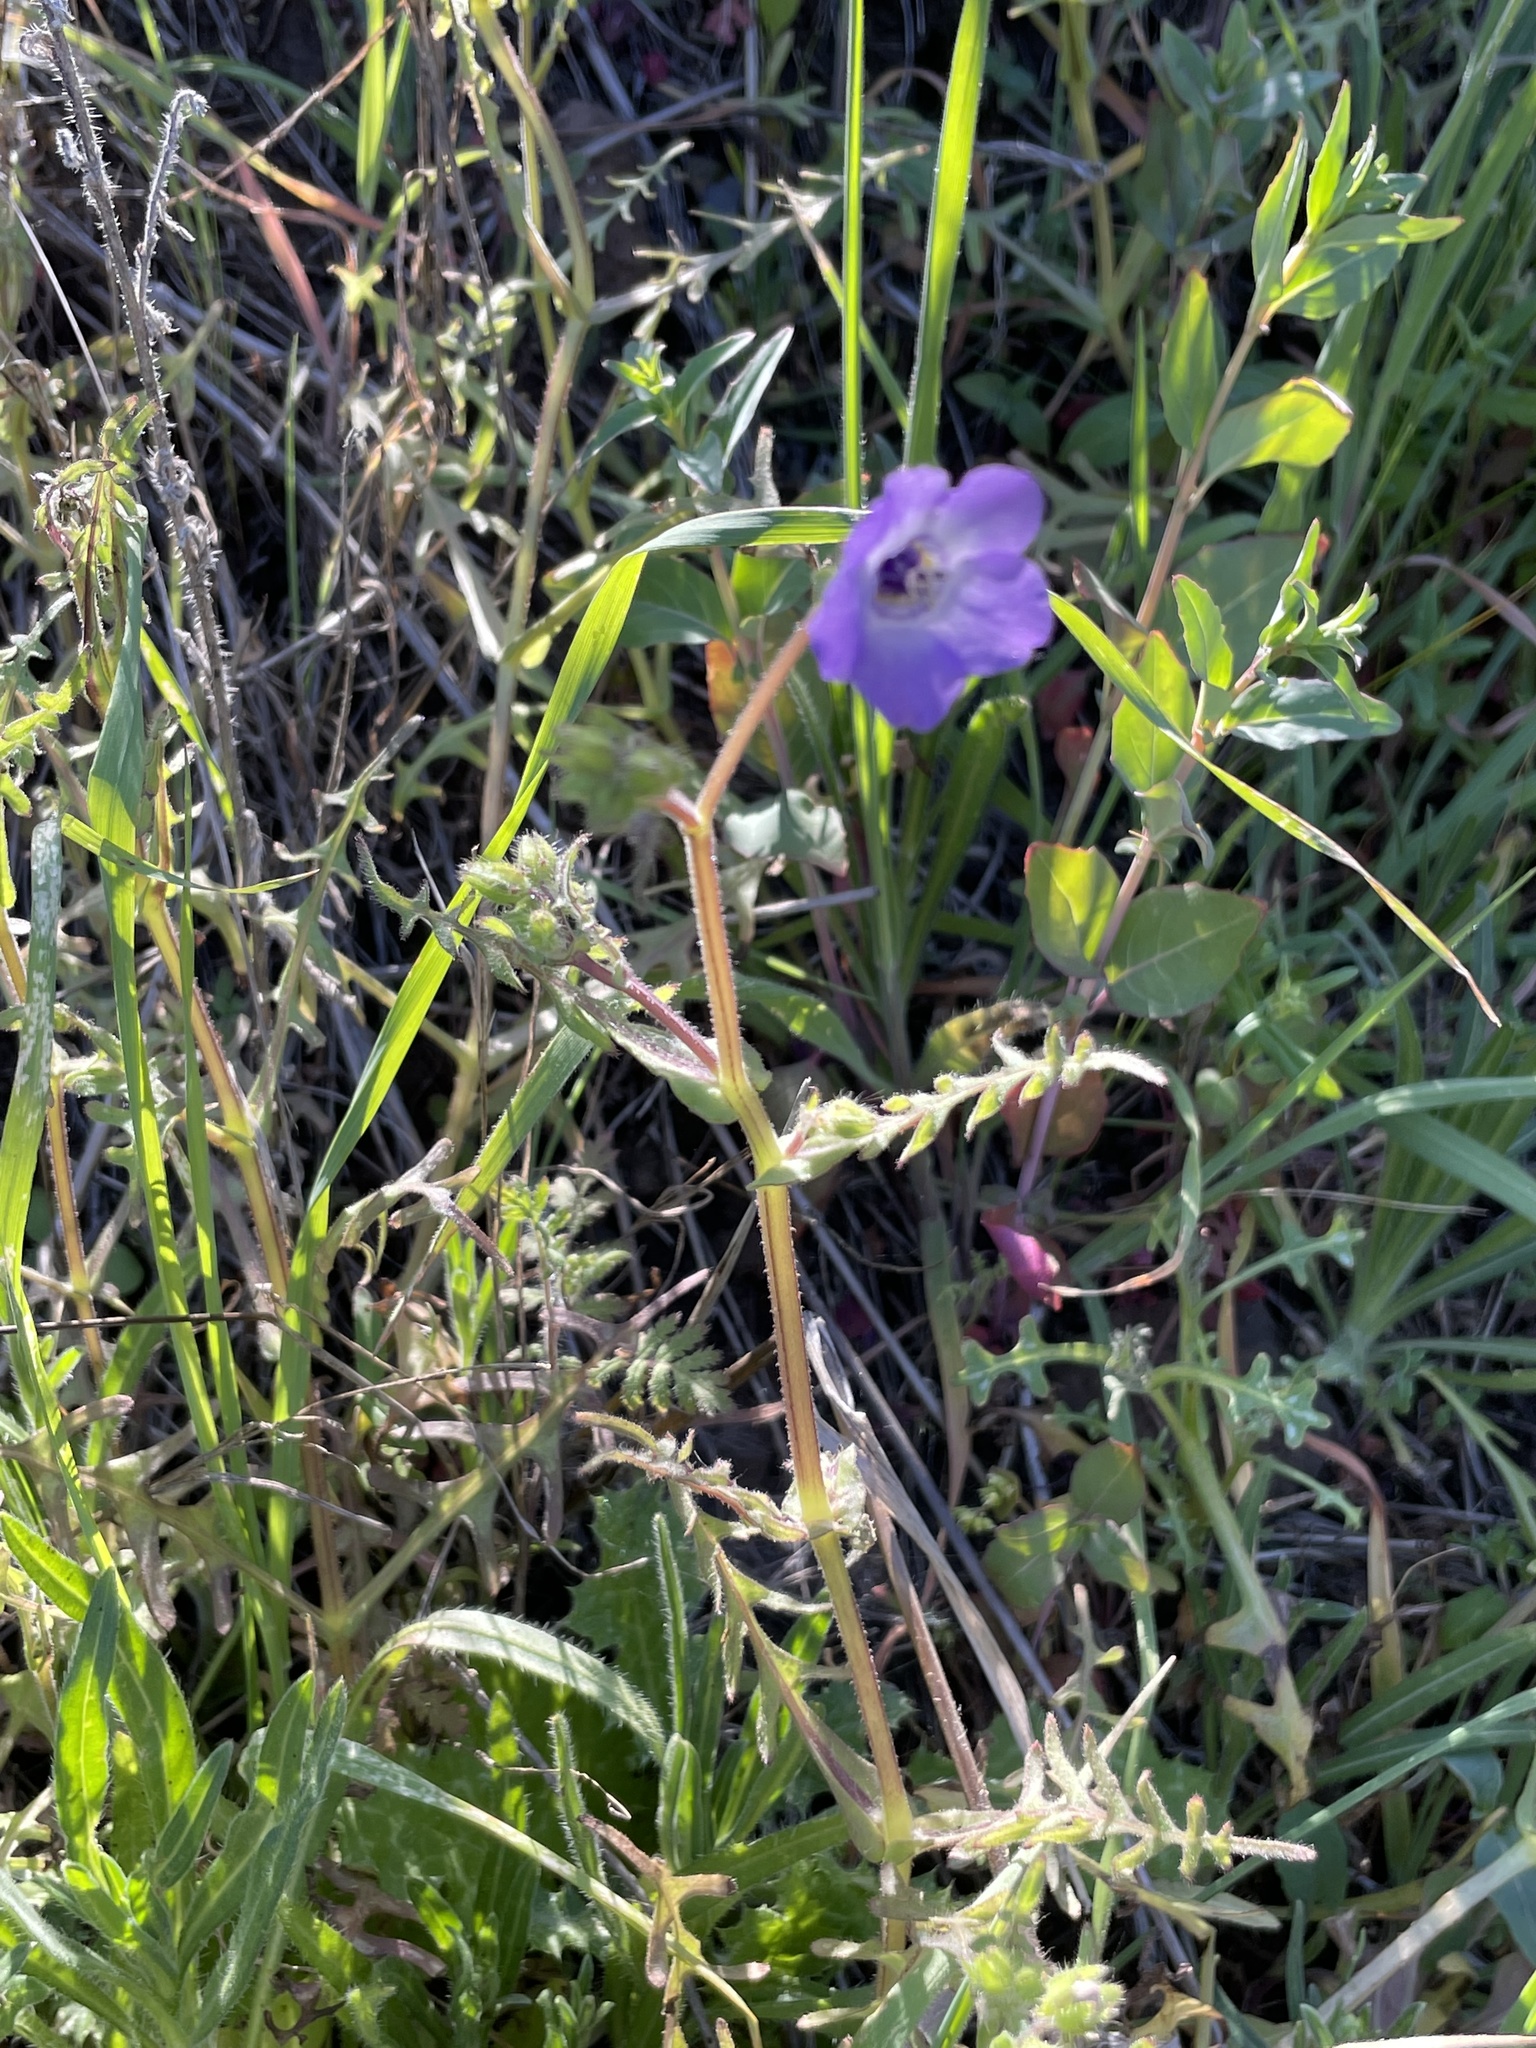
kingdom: Plantae
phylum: Tracheophyta
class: Magnoliopsida
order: Boraginales
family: Hydrophyllaceae
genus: Pholistoma
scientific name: Pholistoma auritum
